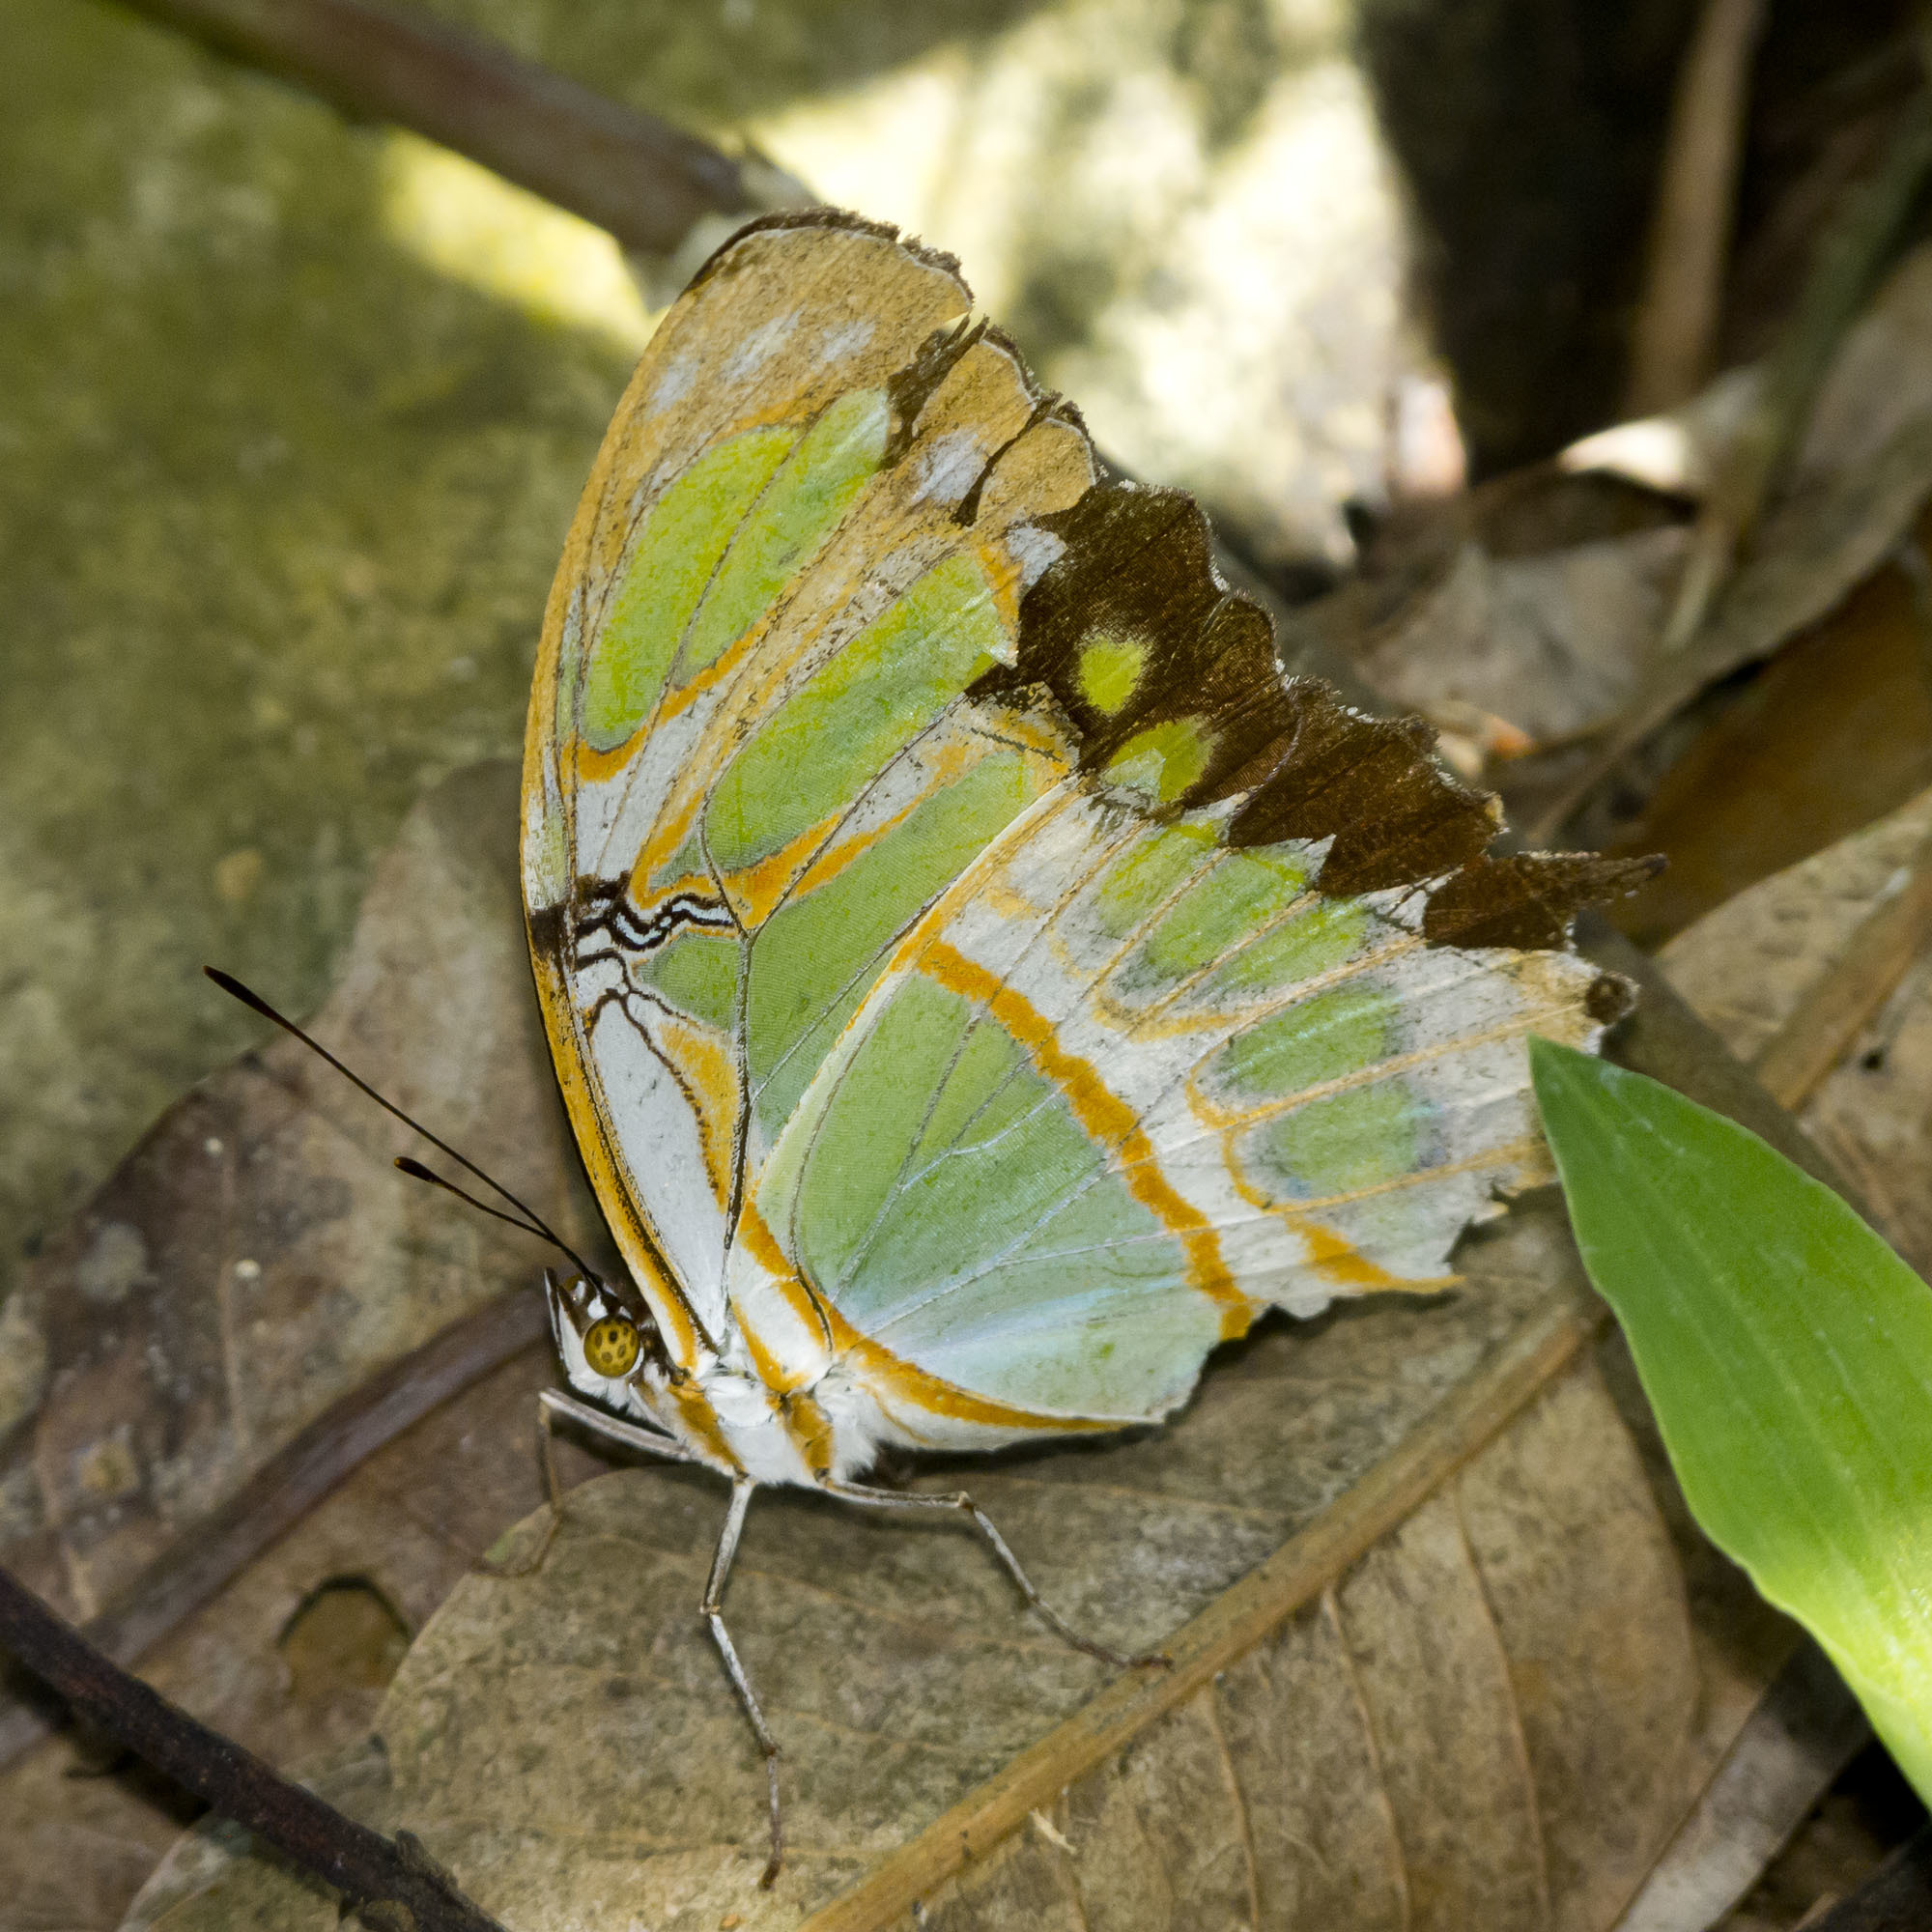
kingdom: Animalia
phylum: Arthropoda
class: Insecta
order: Lepidoptera
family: Nymphalidae
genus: Siproeta
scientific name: Siproeta stelenes
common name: Malachite
